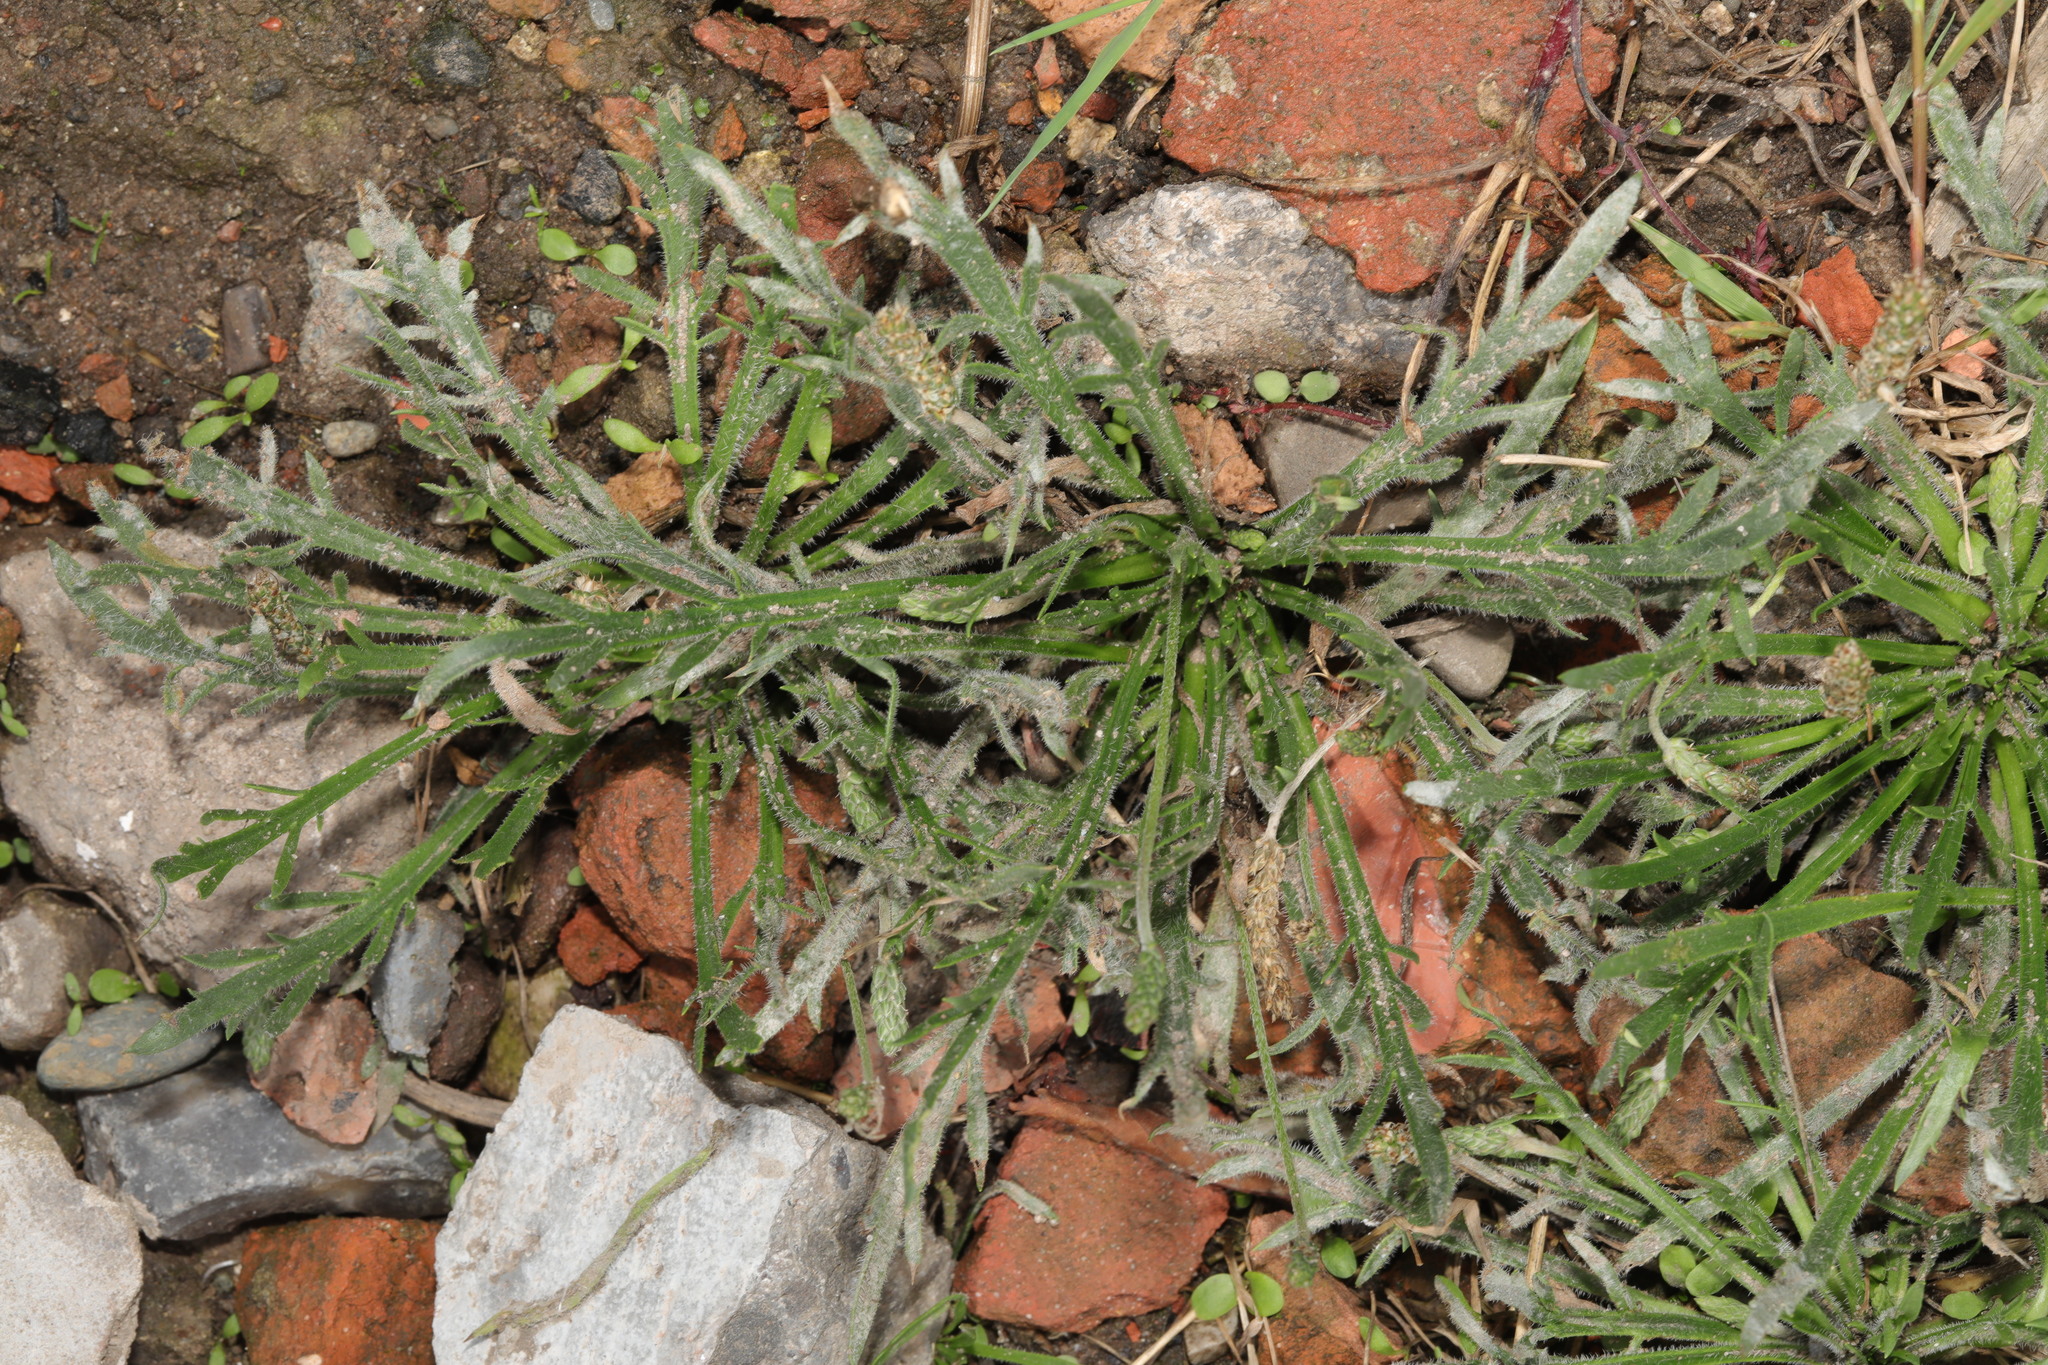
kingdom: Plantae
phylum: Tracheophyta
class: Magnoliopsida
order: Lamiales
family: Plantaginaceae
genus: Plantago
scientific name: Plantago coronopus
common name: Buck's-horn plantain
